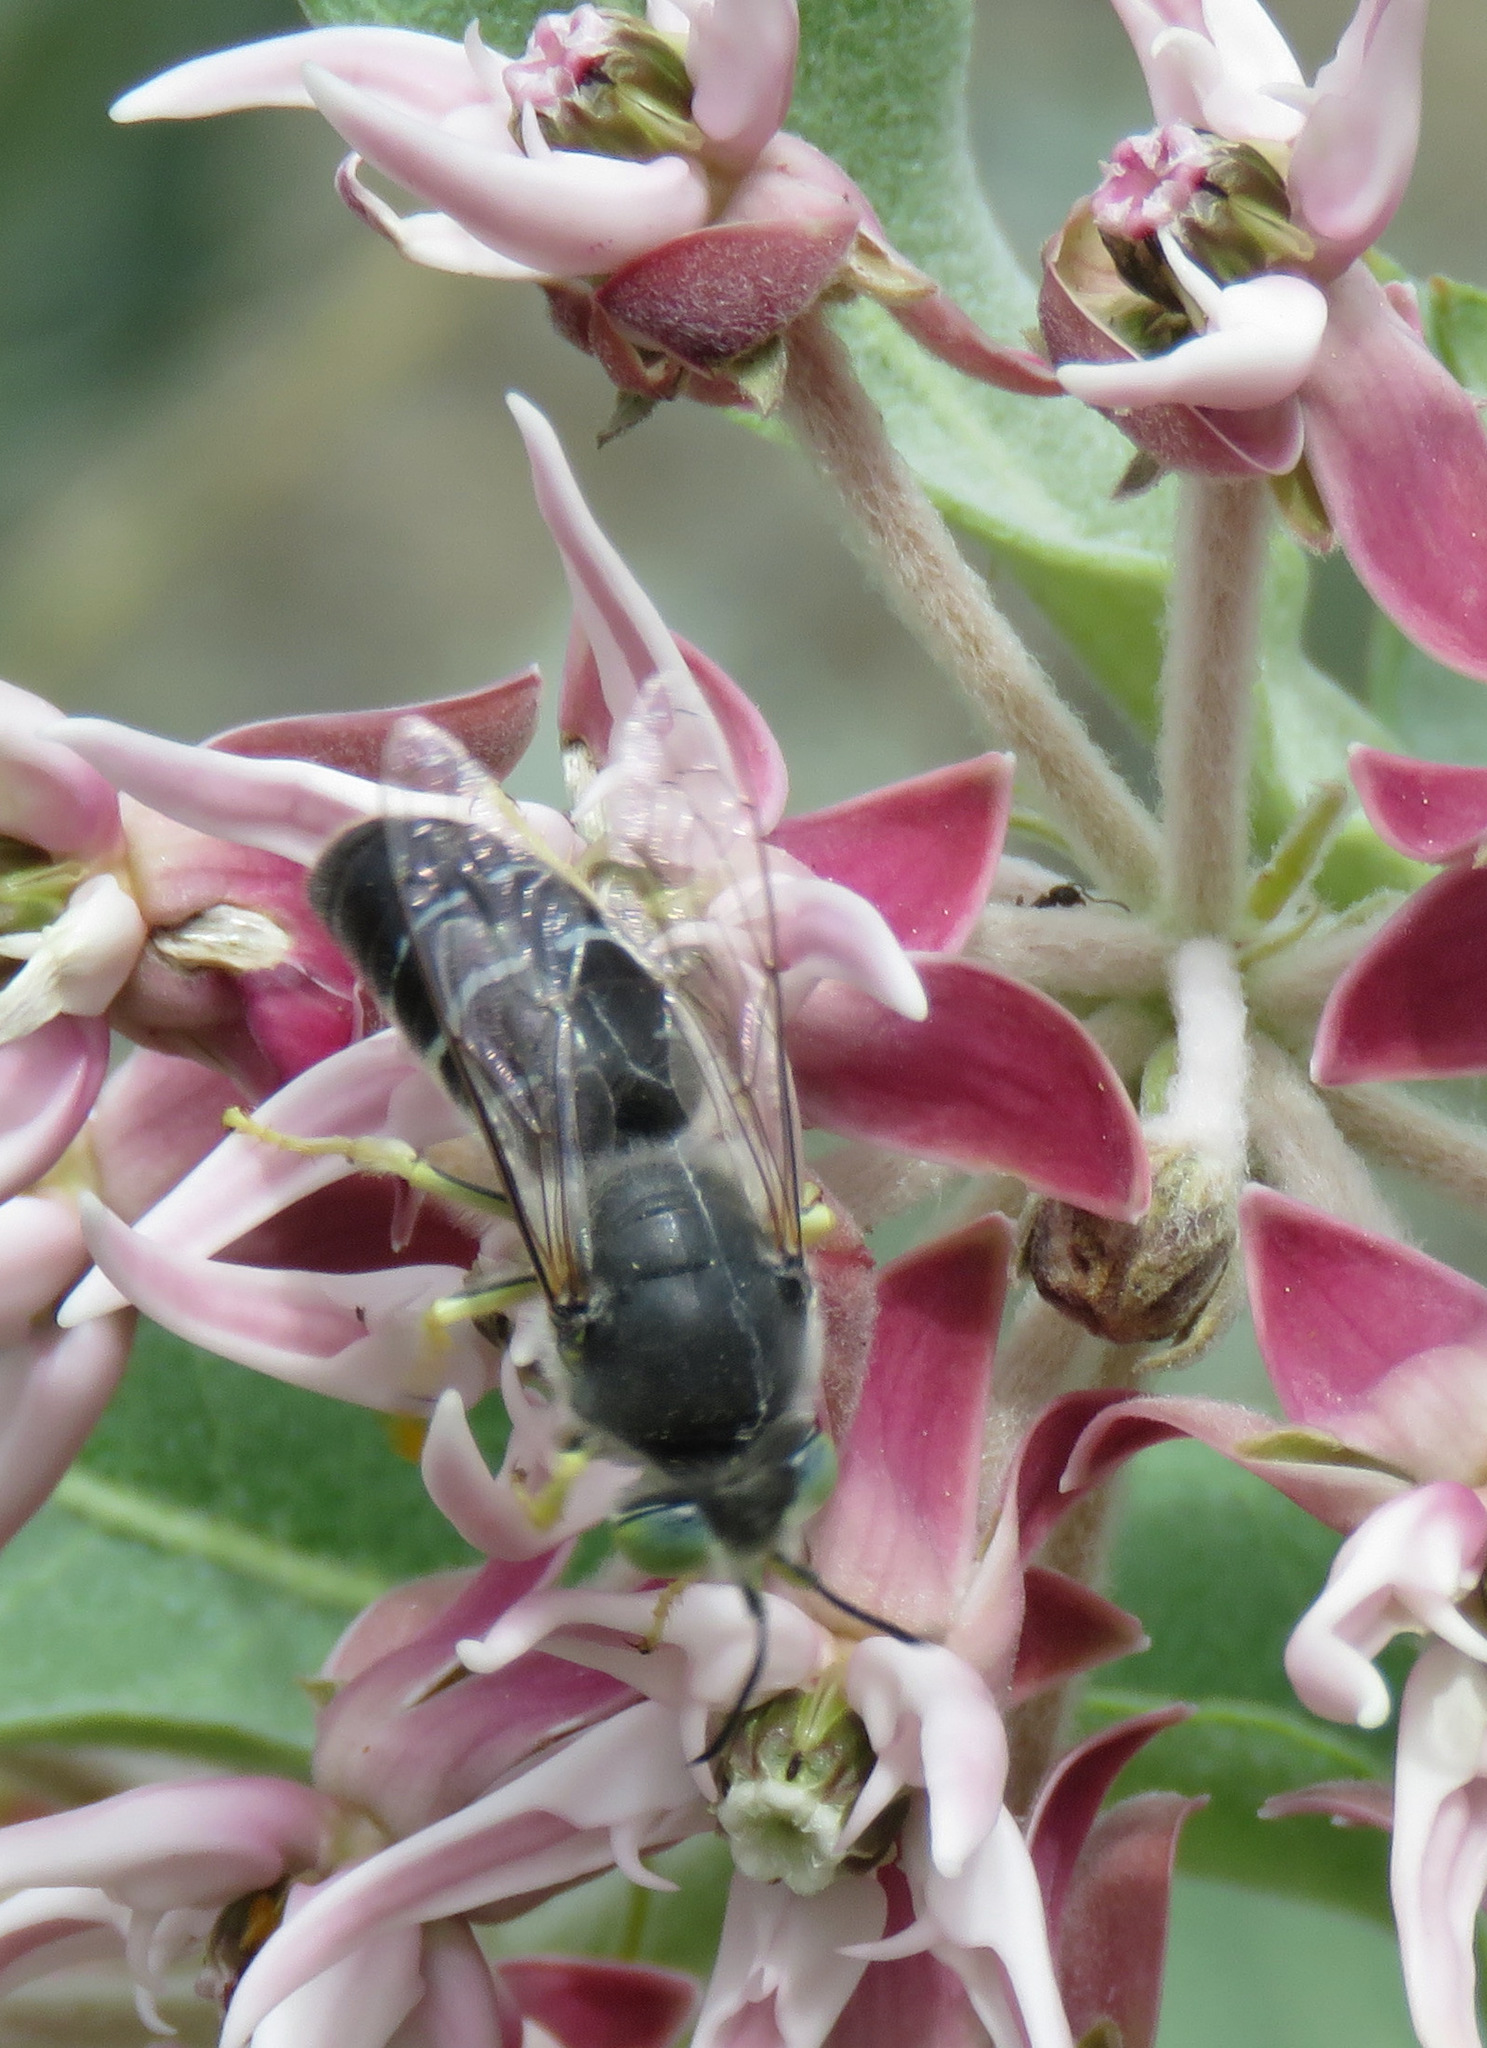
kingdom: Animalia
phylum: Arthropoda
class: Insecta
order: Hymenoptera
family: Crabronidae
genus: Bembix
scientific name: Bembix amoena
